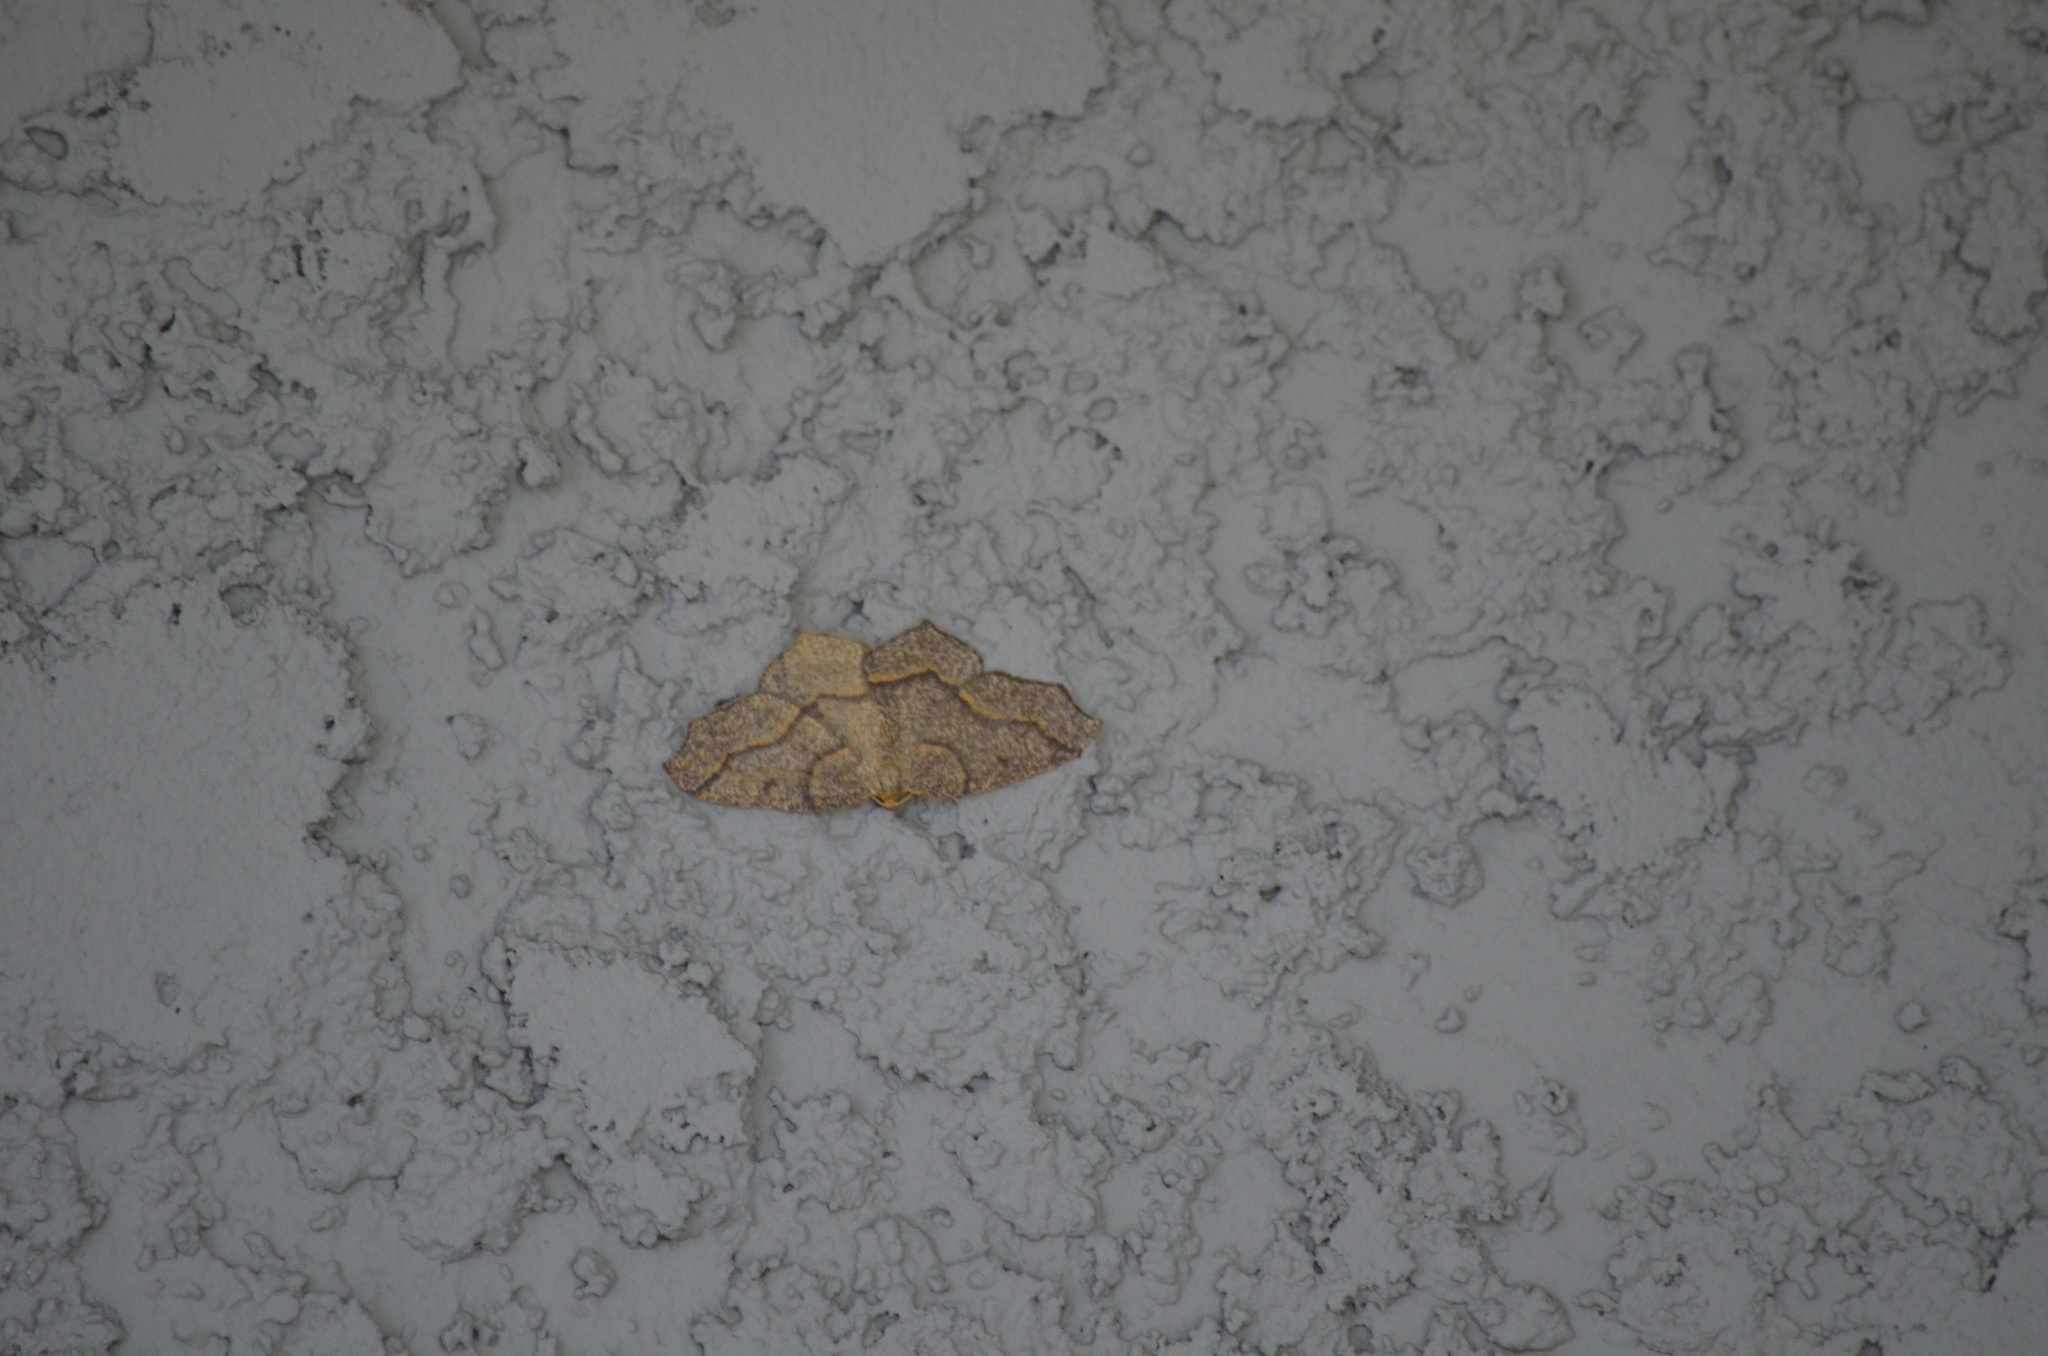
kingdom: Animalia
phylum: Arthropoda
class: Insecta
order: Lepidoptera
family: Geometridae
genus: Lambdina
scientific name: Lambdina fiscellaria
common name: Hemlock looper
